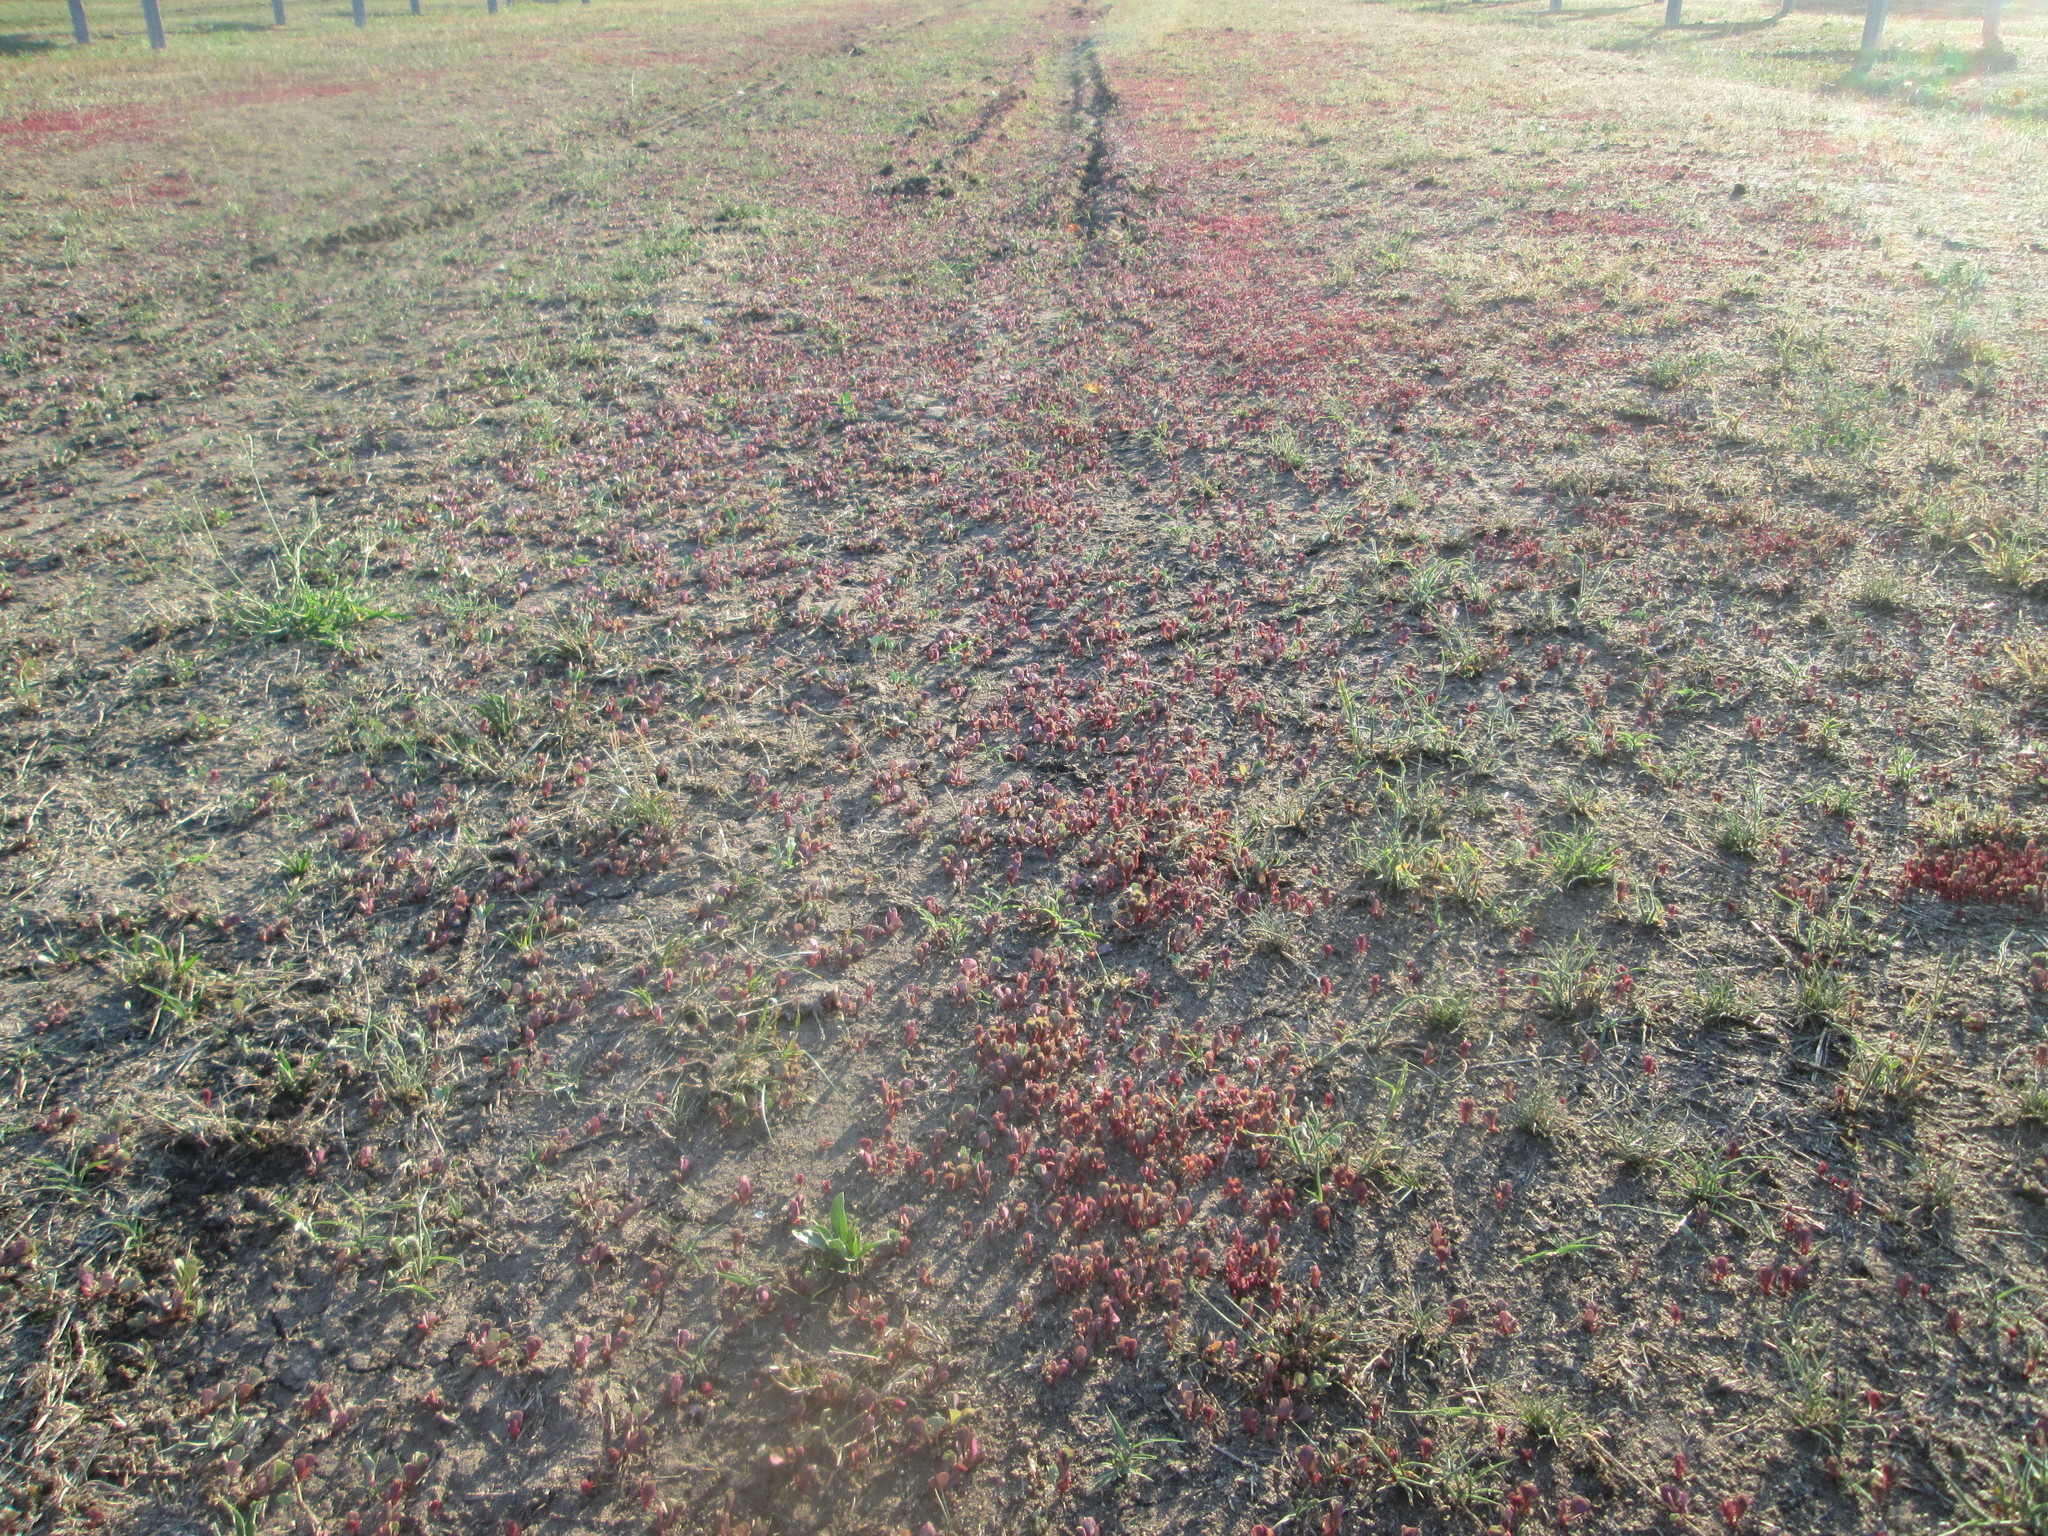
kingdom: Plantae
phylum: Tracheophyta
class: Magnoliopsida
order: Caryophyllales
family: Portulacaceae
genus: Portulaca
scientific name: Portulaca oleracea
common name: Common purslane
